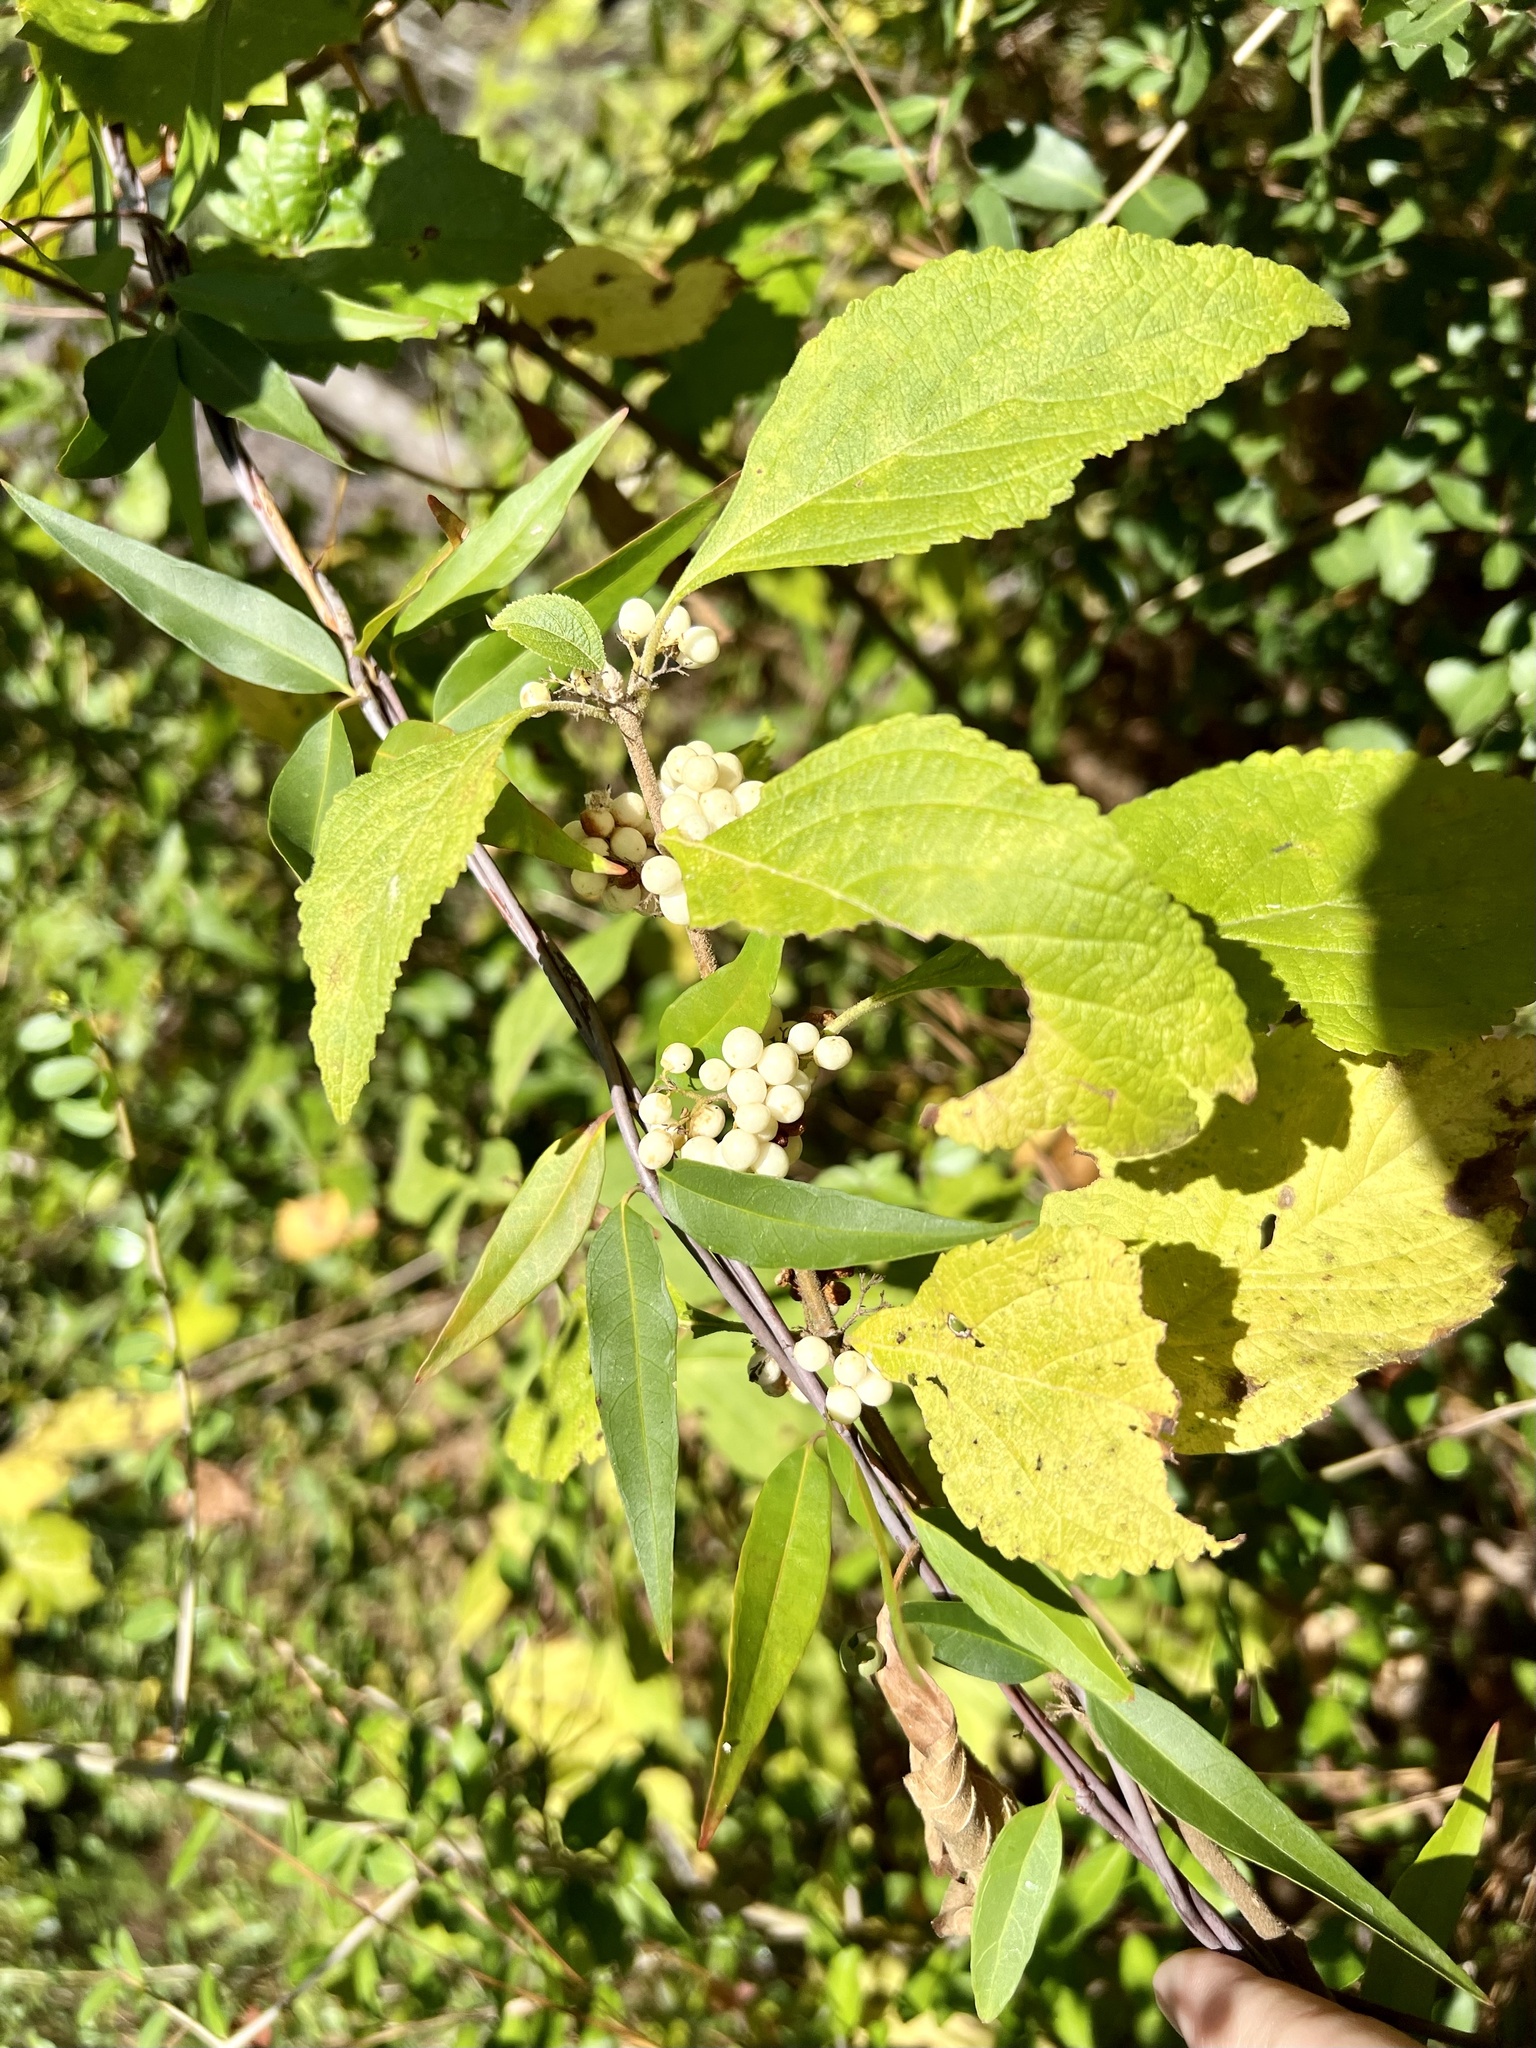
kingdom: Plantae
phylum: Tracheophyta
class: Magnoliopsida
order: Lamiales
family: Lamiaceae
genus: Callicarpa
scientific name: Callicarpa americana
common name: American beautyberry
